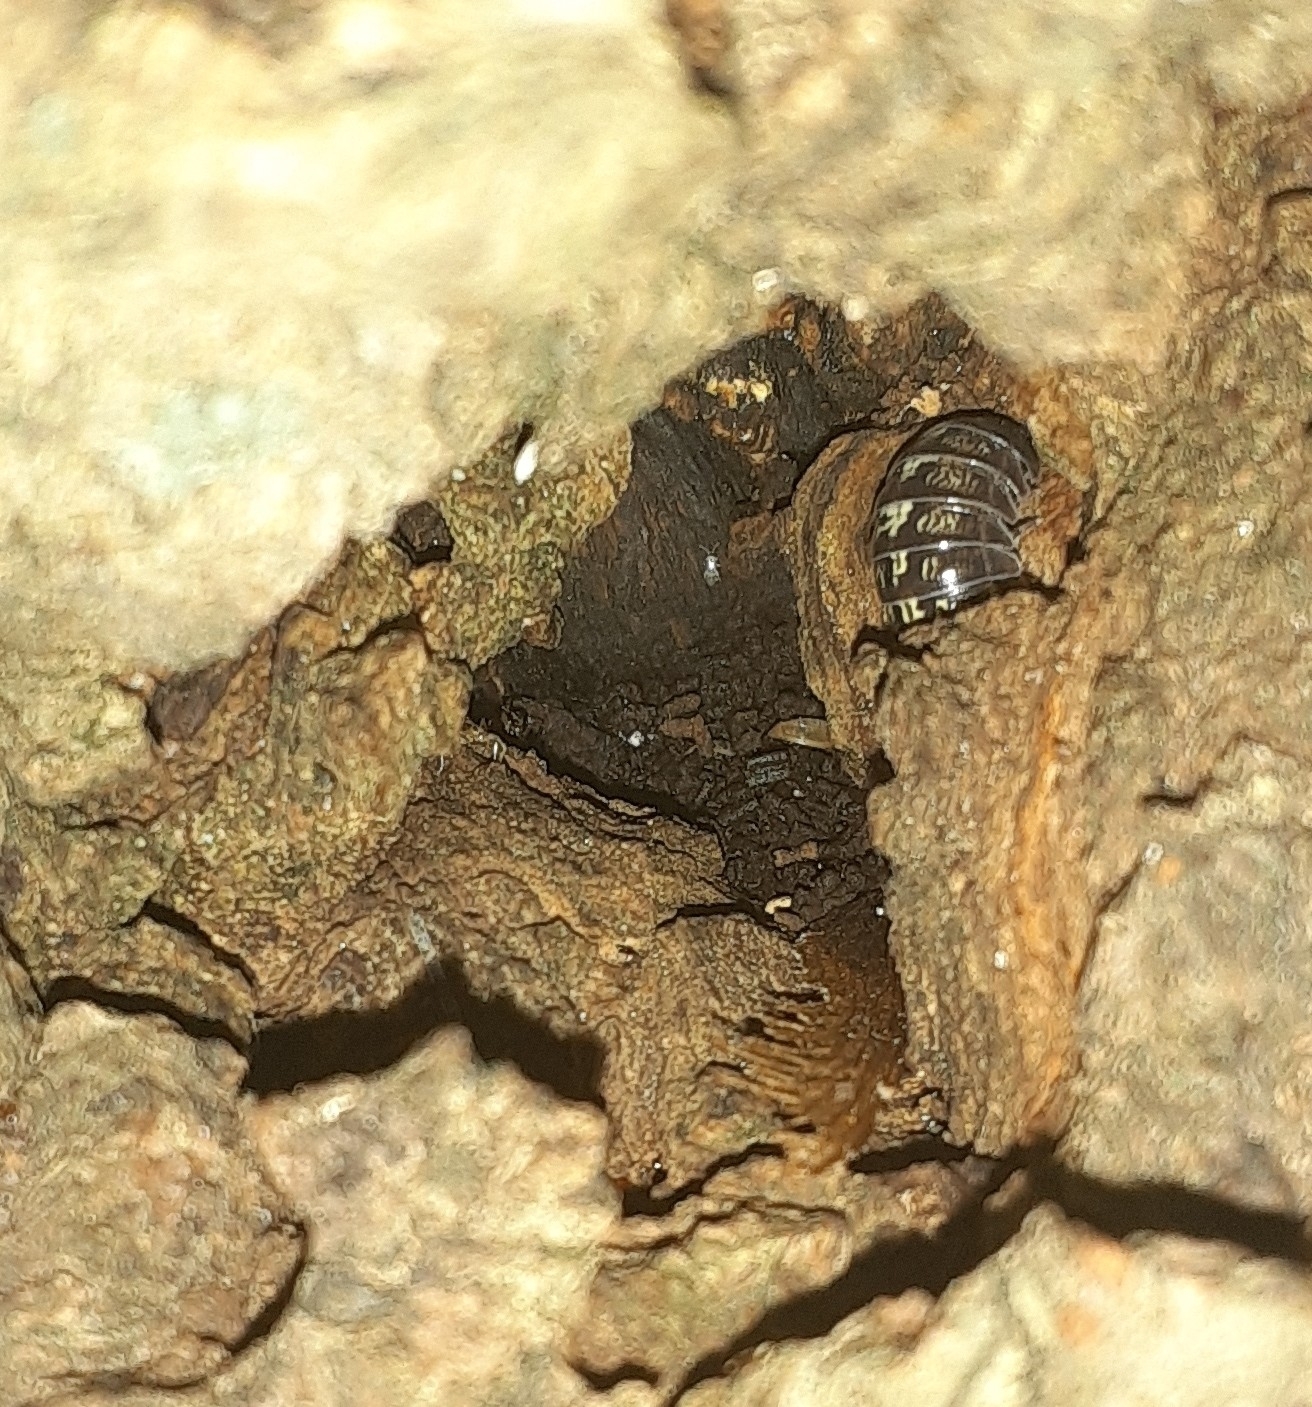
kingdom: Animalia
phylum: Arthropoda
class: Malacostraca
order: Isopoda
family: Armadillidiidae
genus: Armadillidium
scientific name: Armadillidium vulgare
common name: Common pill woodlouse
